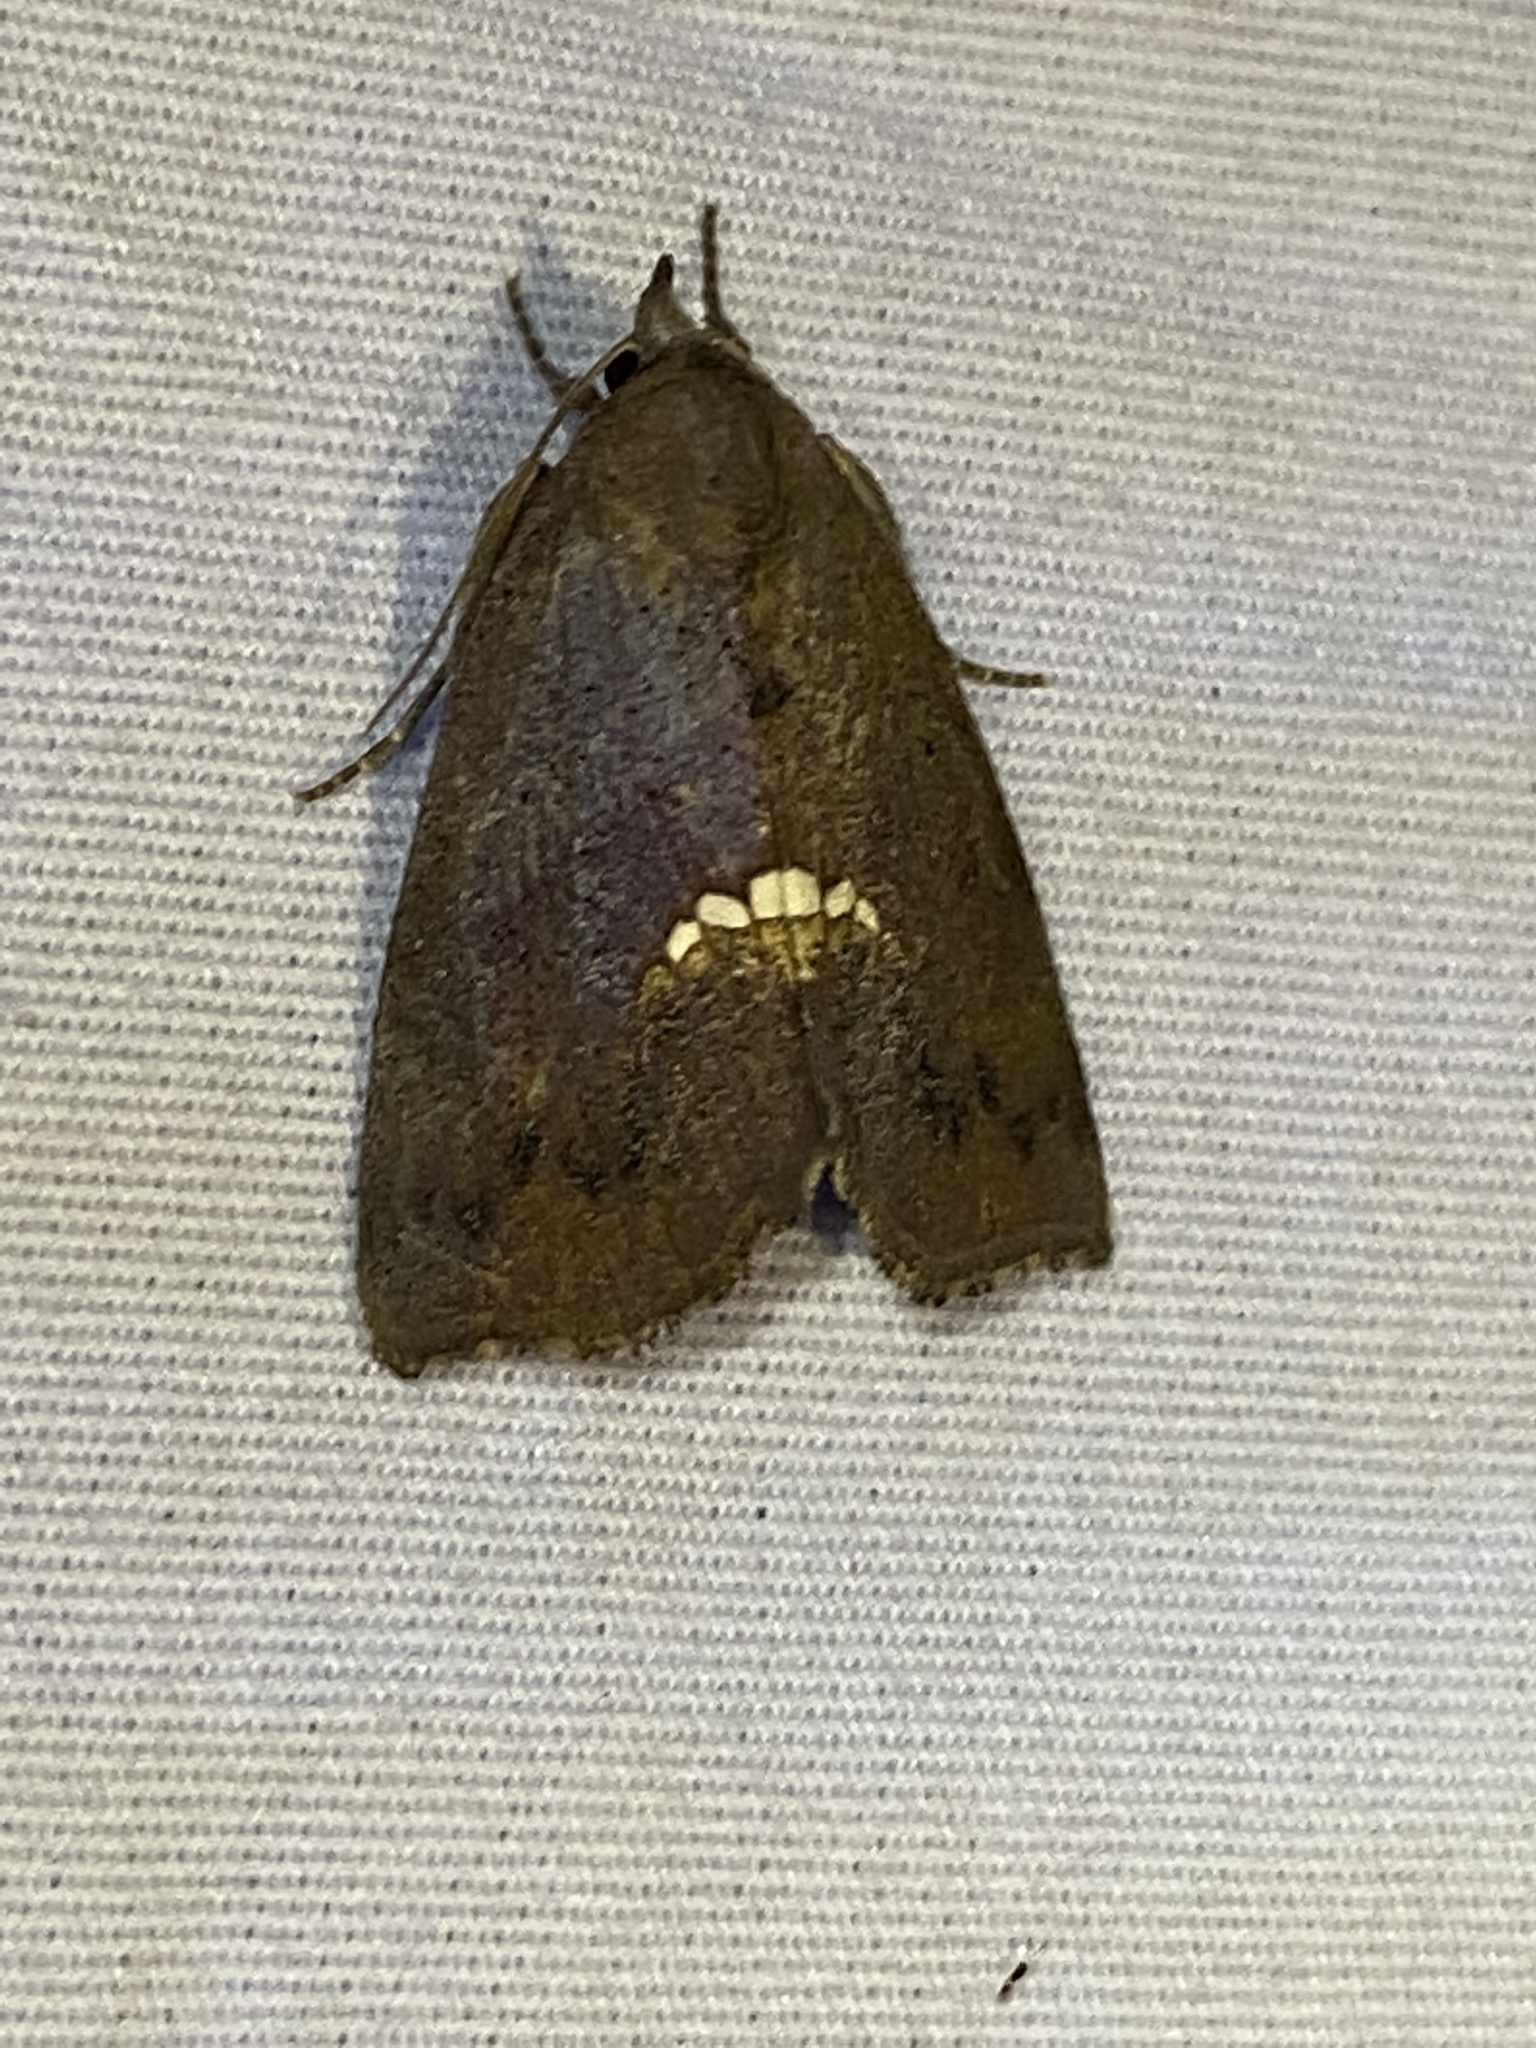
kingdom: Animalia
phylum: Arthropoda
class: Insecta
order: Lepidoptera
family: Erebidae
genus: Hypsoropha
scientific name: Hypsoropha hormos
